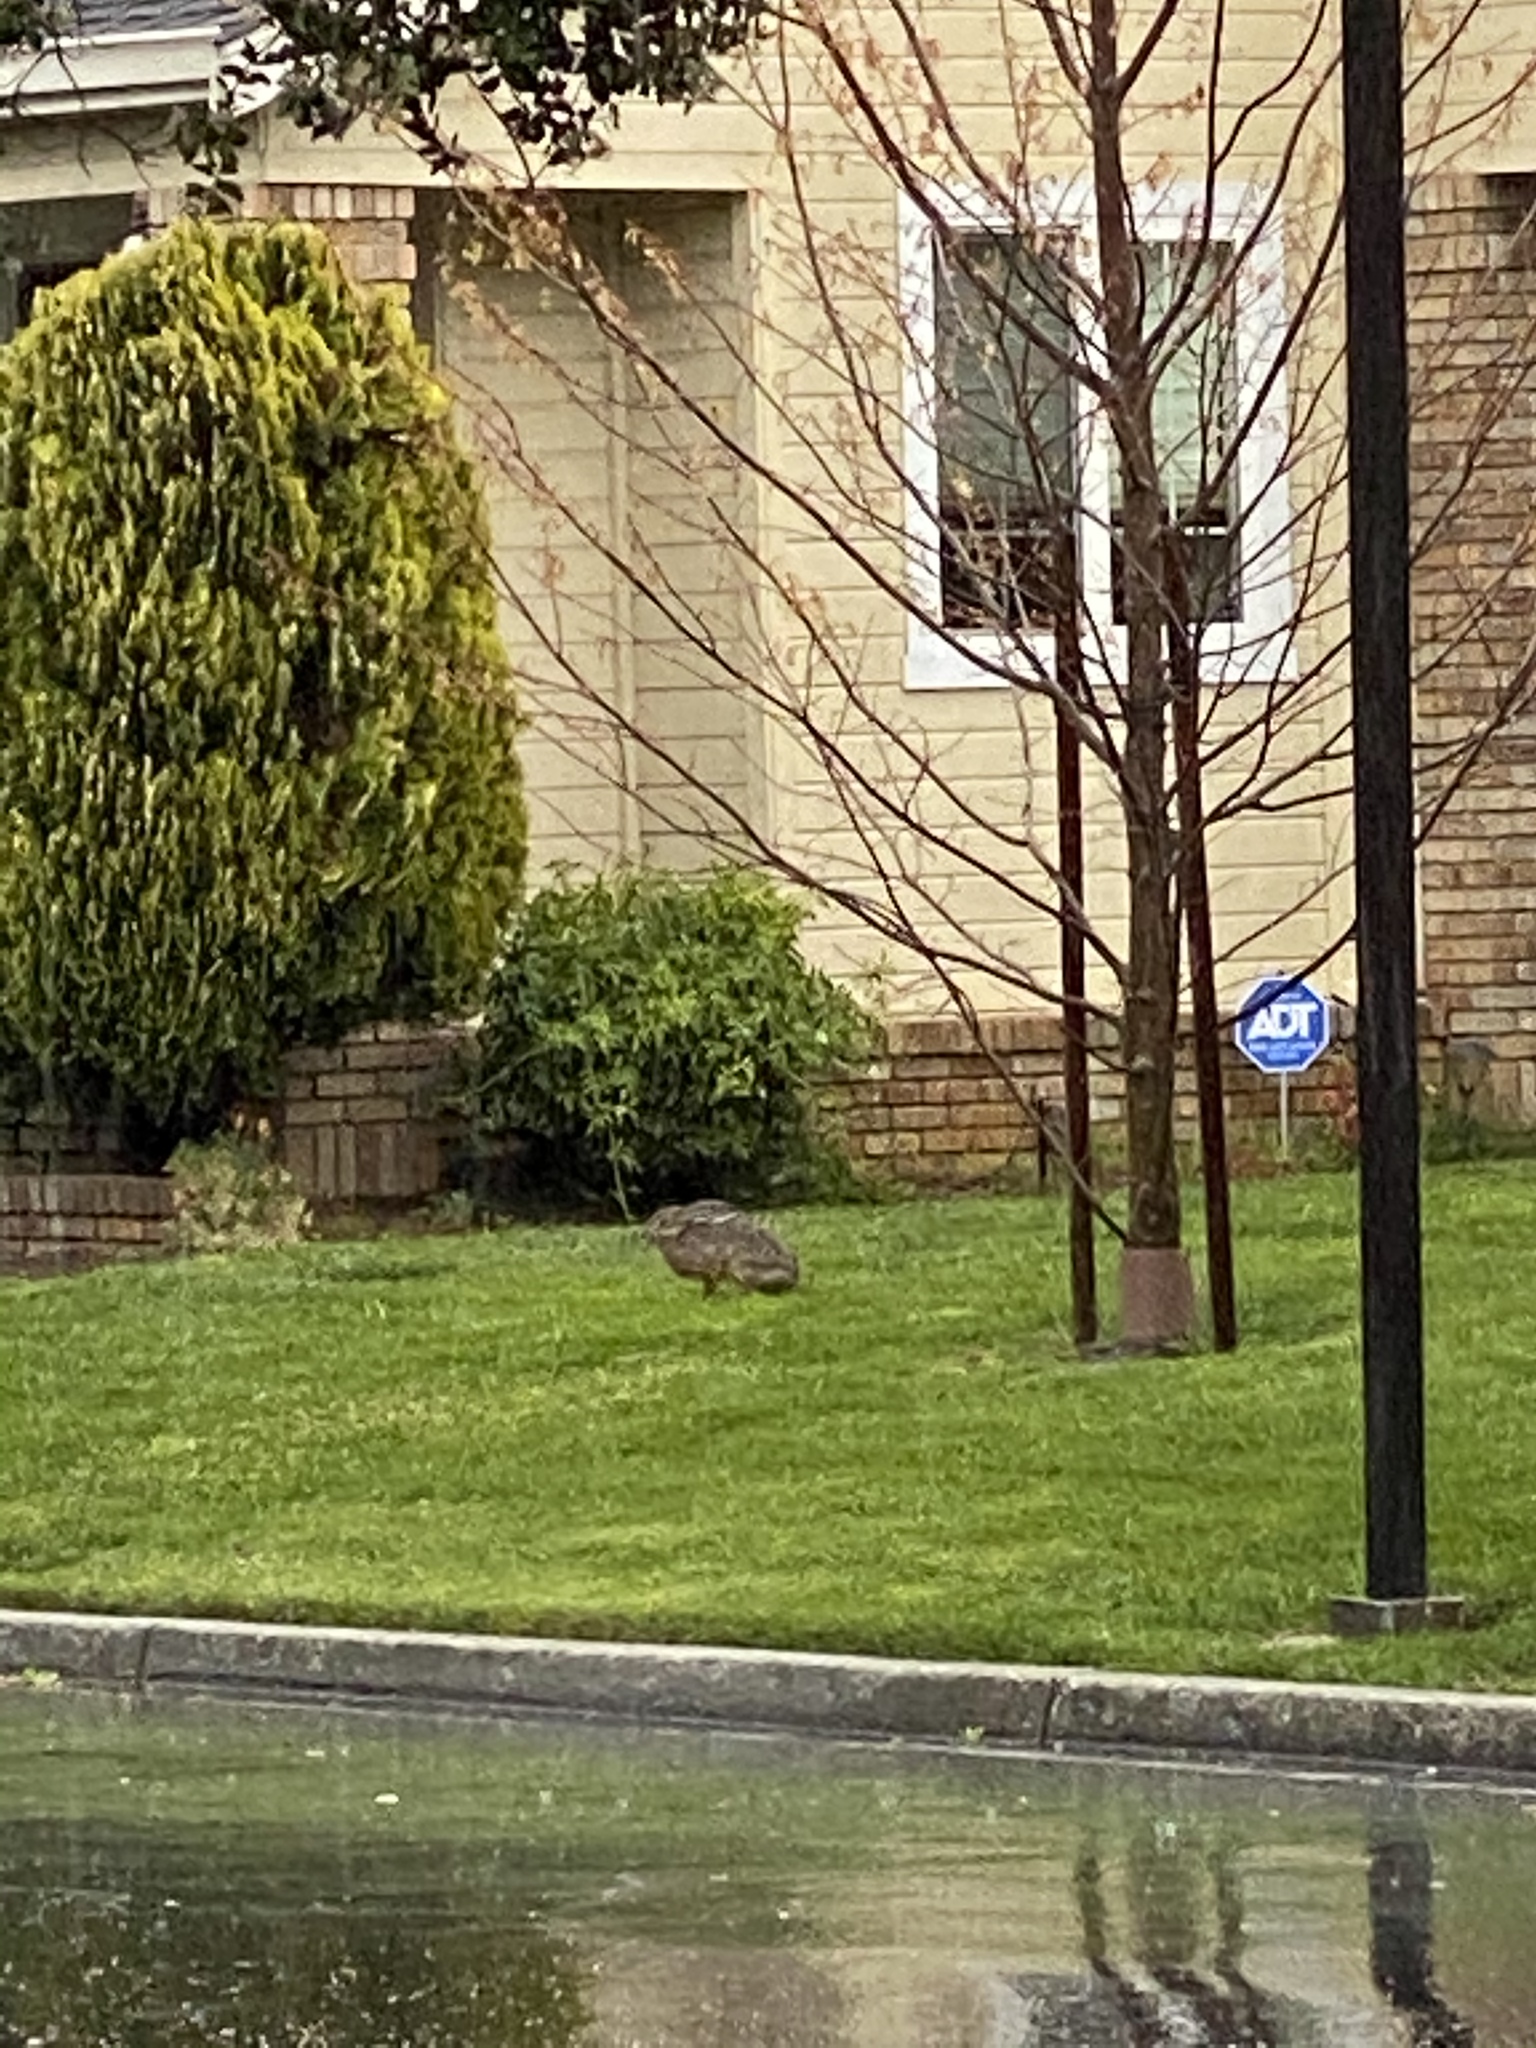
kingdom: Animalia
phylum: Chordata
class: Mammalia
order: Lagomorpha
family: Leporidae
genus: Lepus
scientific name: Lepus californicus
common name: Black-tailed jackrabbit
